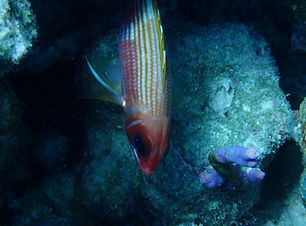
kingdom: Animalia
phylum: Chordata
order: Beryciformes
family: Holocentridae
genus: Holocentrus
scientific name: Holocentrus rufus
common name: Longspine squirrelfish
